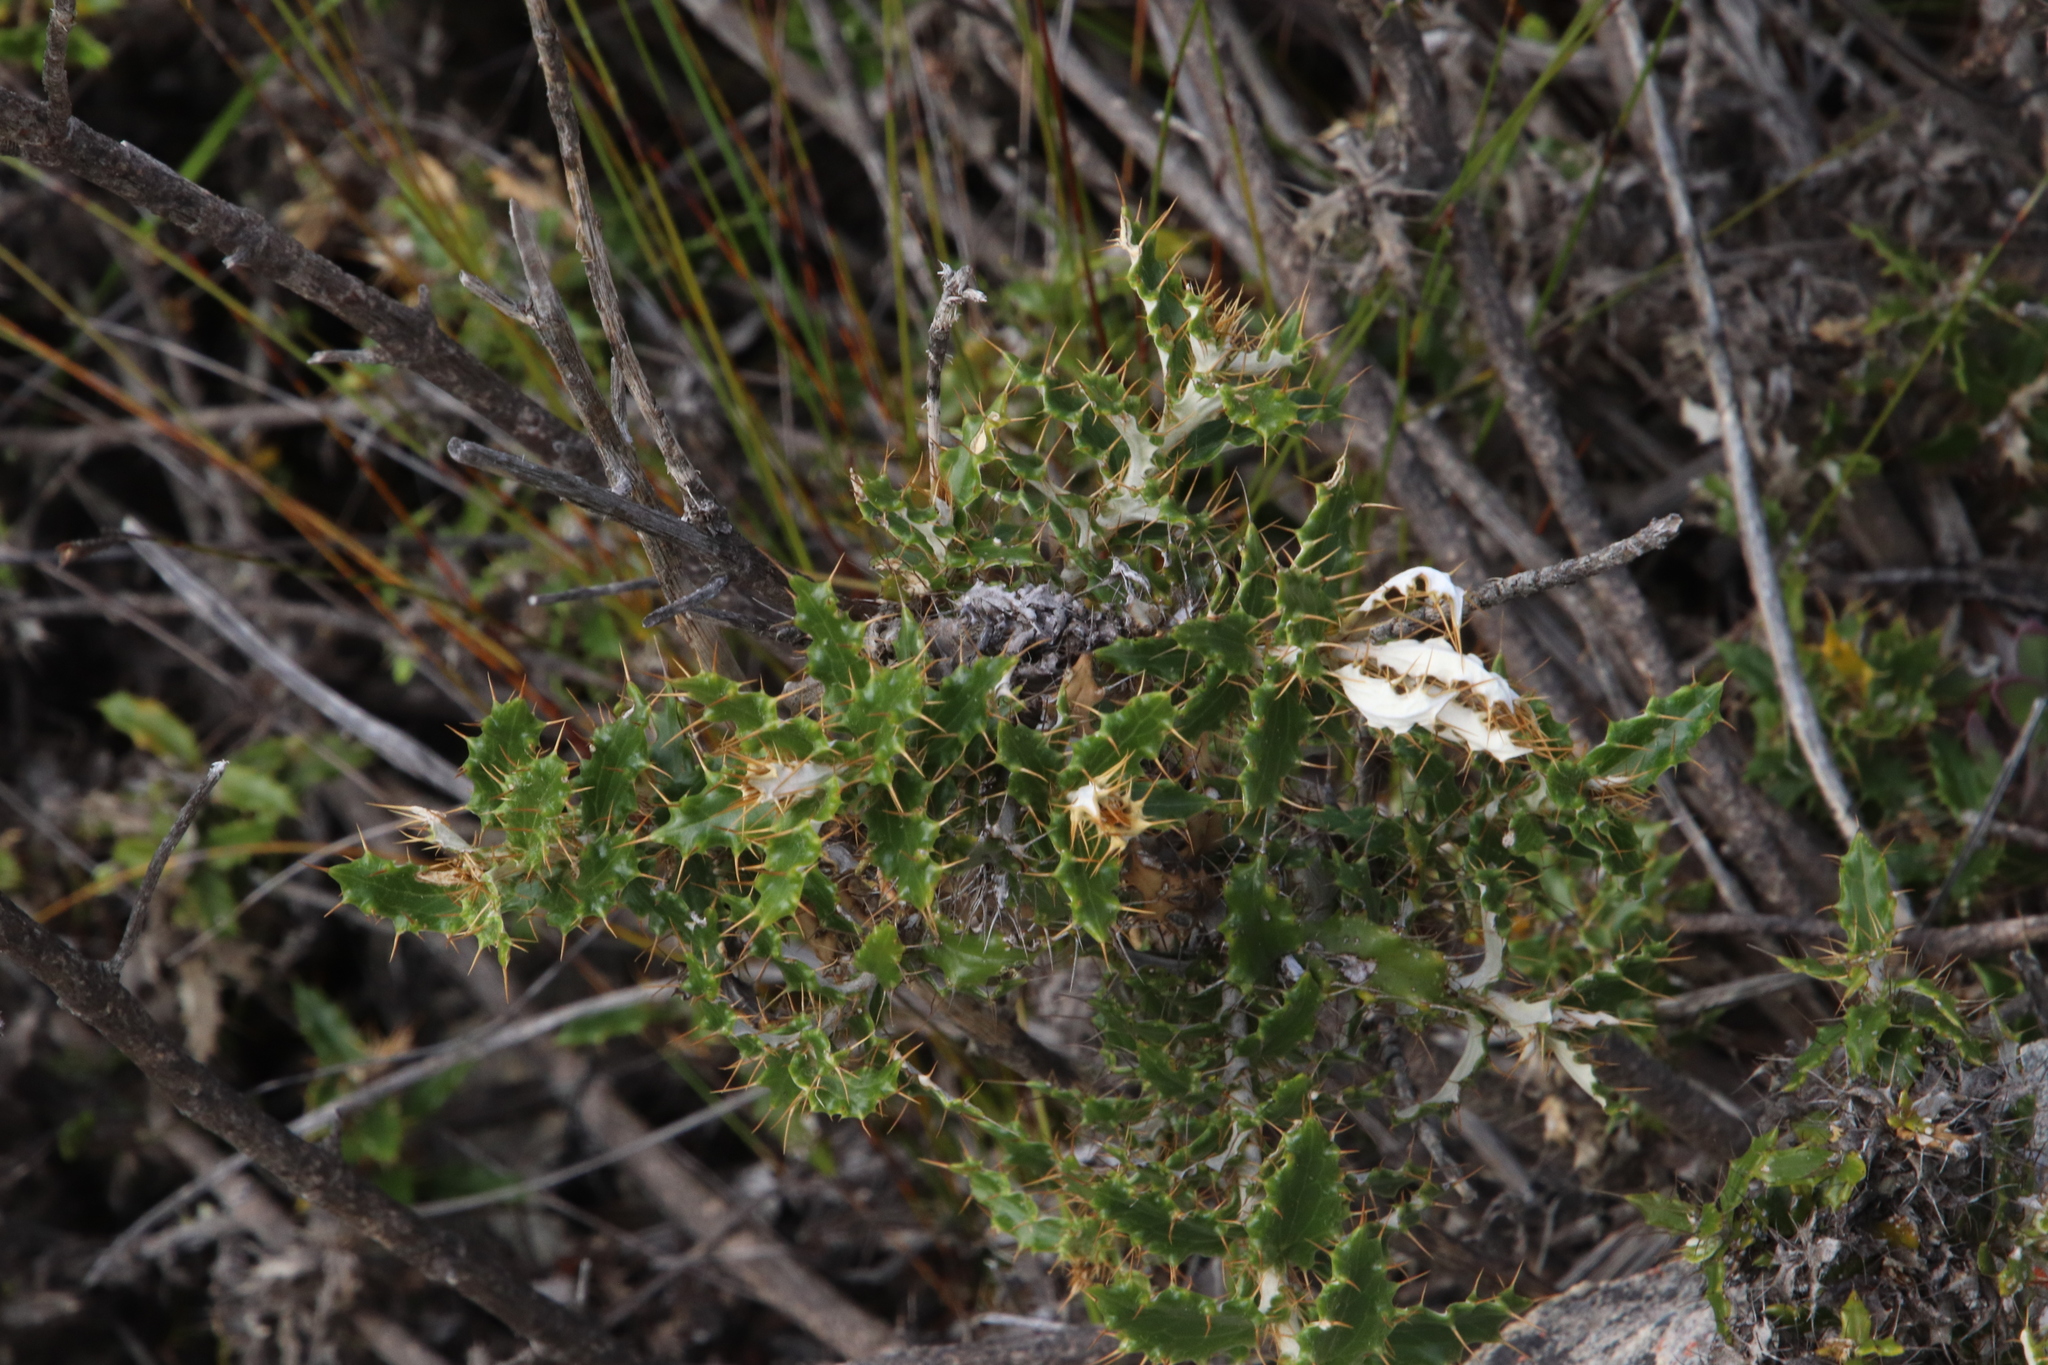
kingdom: Plantae
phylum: Tracheophyta
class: Magnoliopsida
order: Asterales
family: Asteraceae
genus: Berkheya
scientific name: Berkheya barbata
